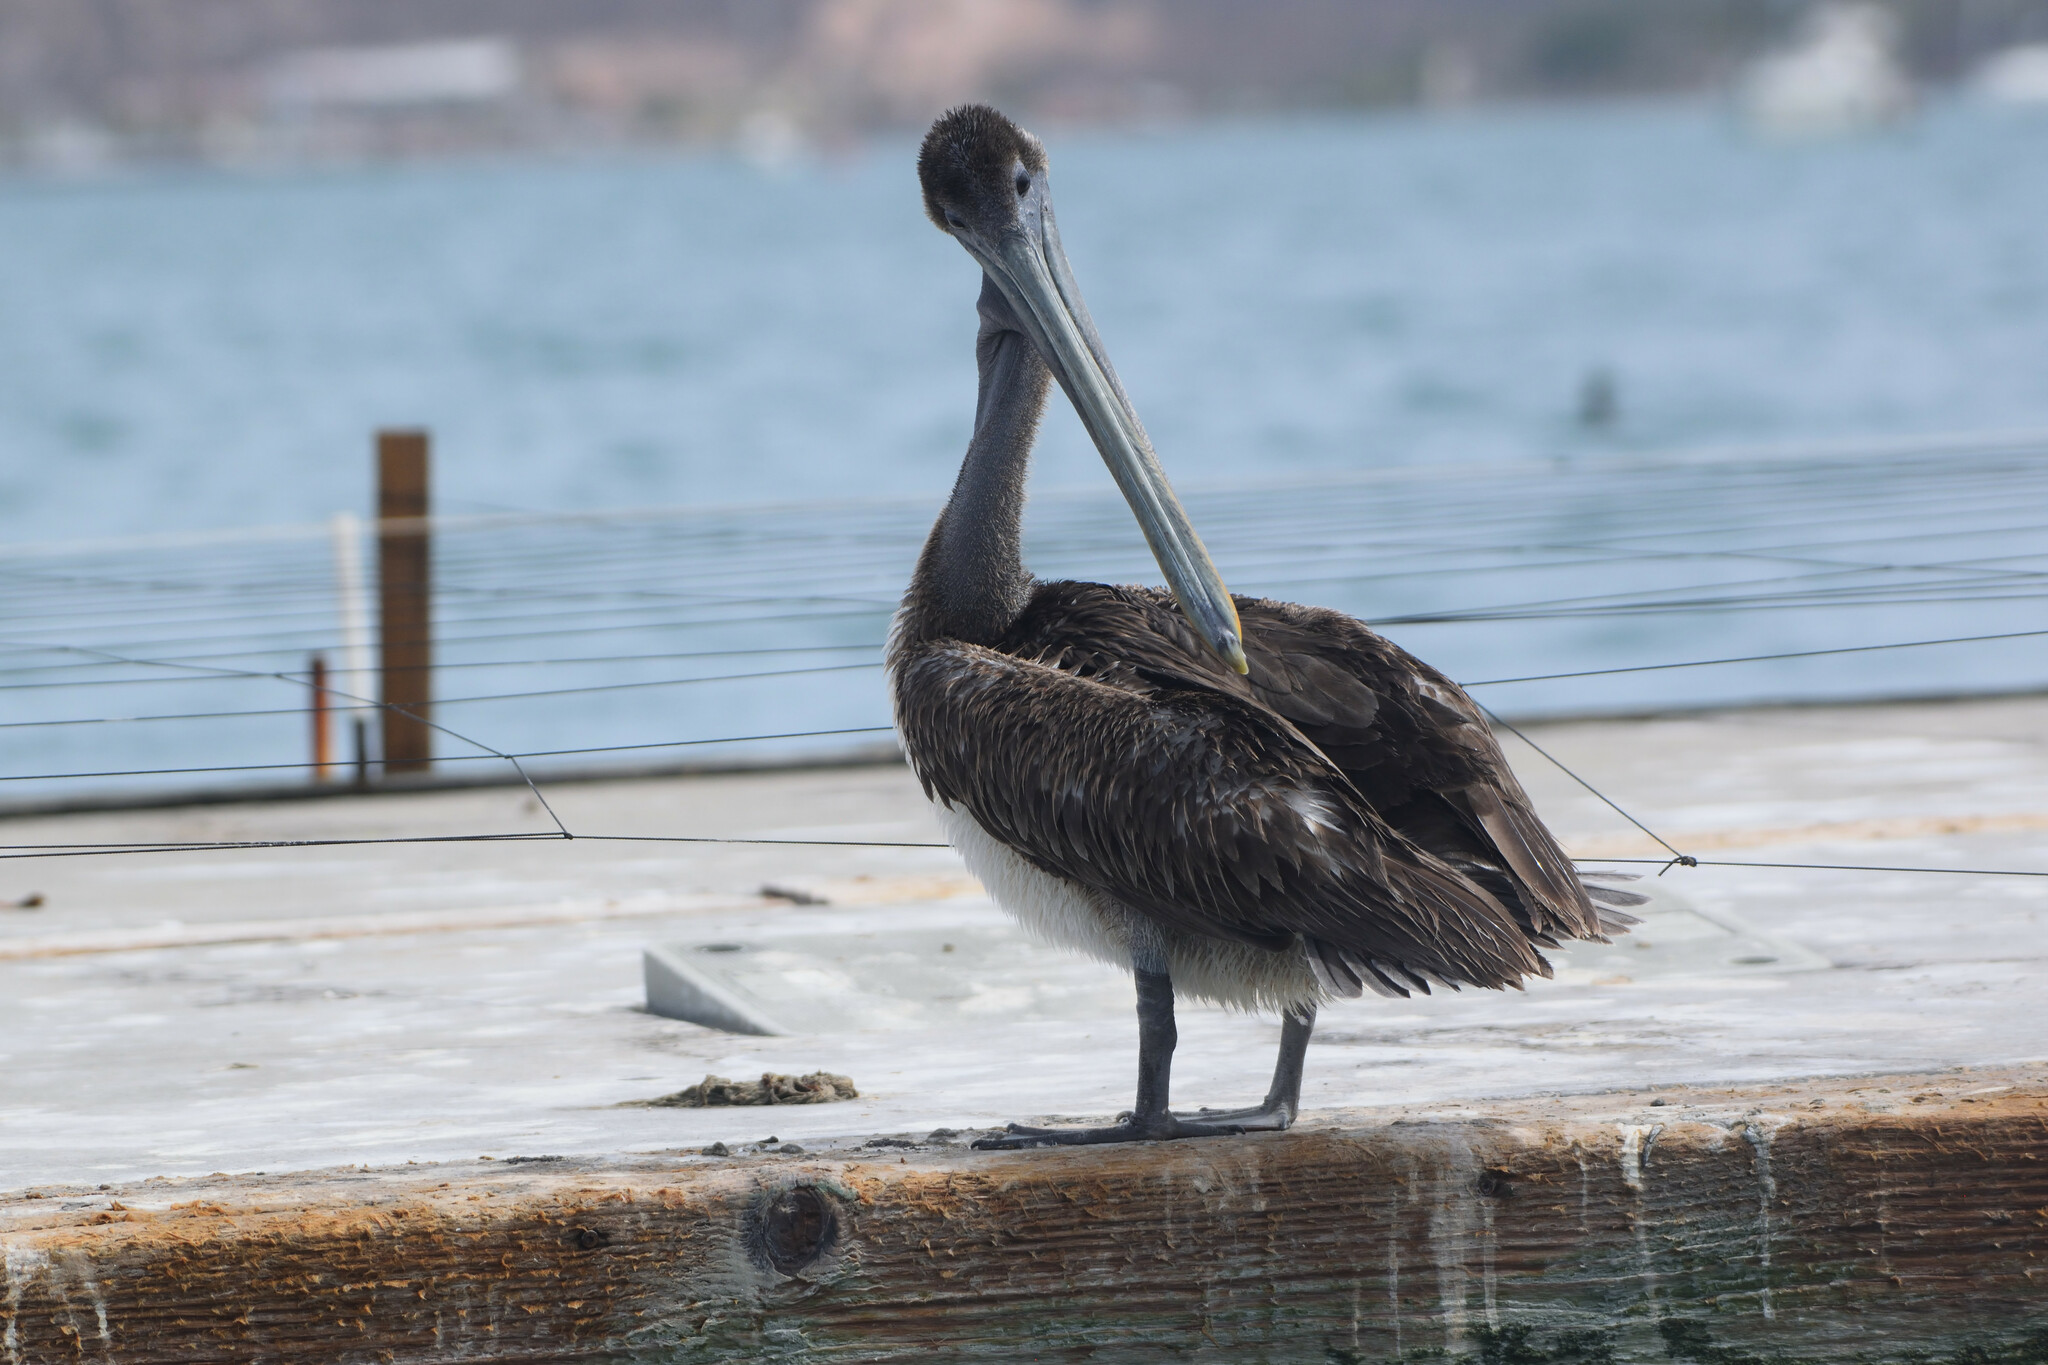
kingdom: Animalia
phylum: Chordata
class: Aves
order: Pelecaniformes
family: Pelecanidae
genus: Pelecanus
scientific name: Pelecanus occidentalis
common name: Brown pelican
